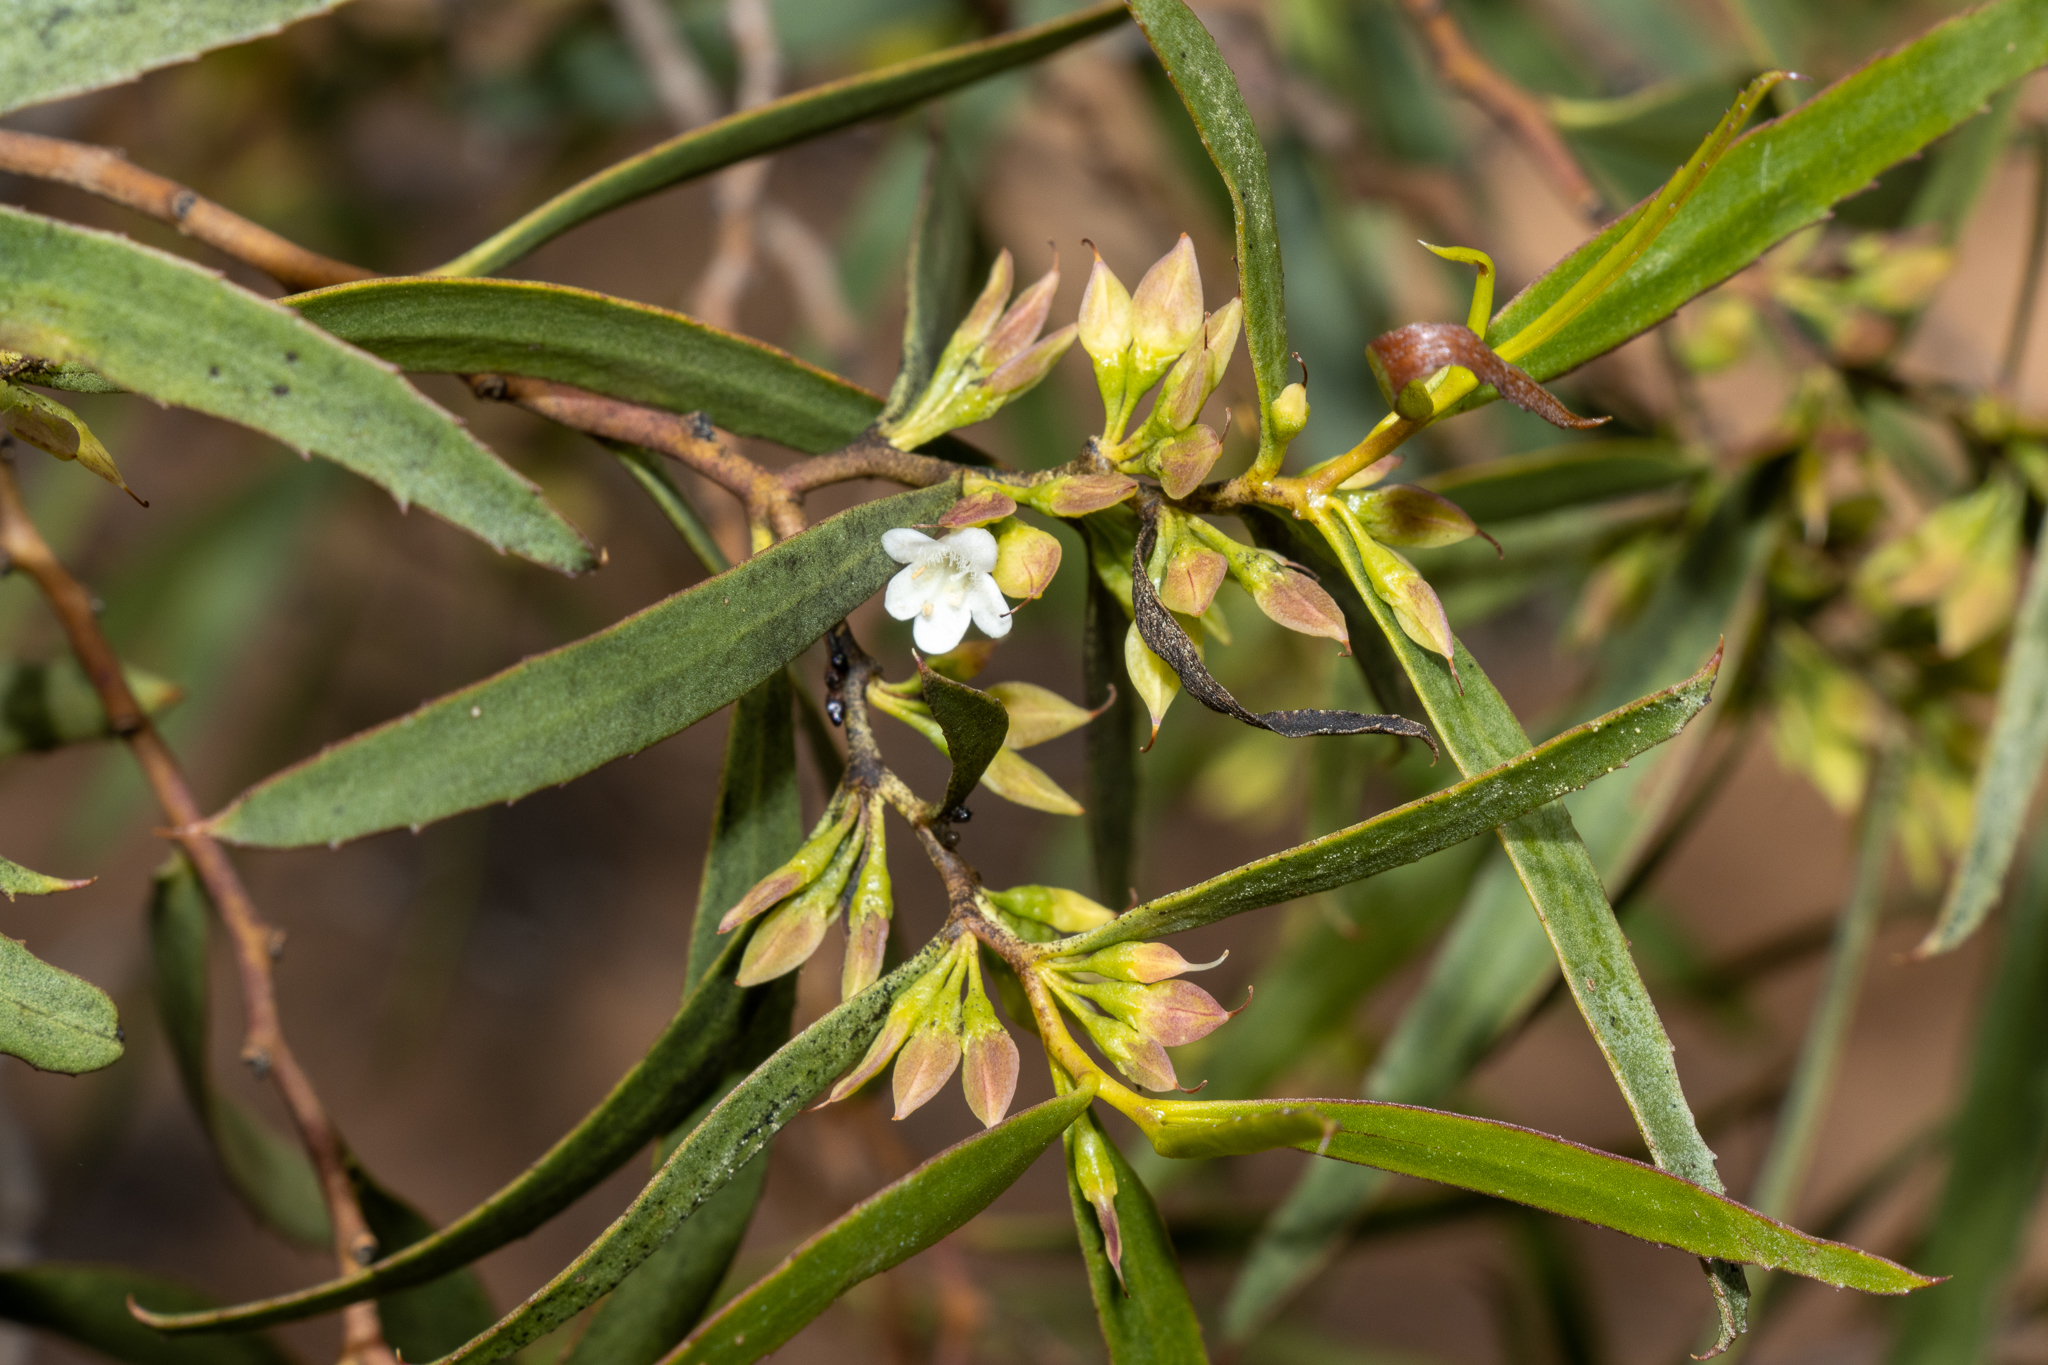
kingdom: Plantae
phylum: Tracheophyta
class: Magnoliopsida
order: Lamiales
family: Scrophulariaceae
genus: Myoporum
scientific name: Myoporum platycarpum
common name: Sugartree
